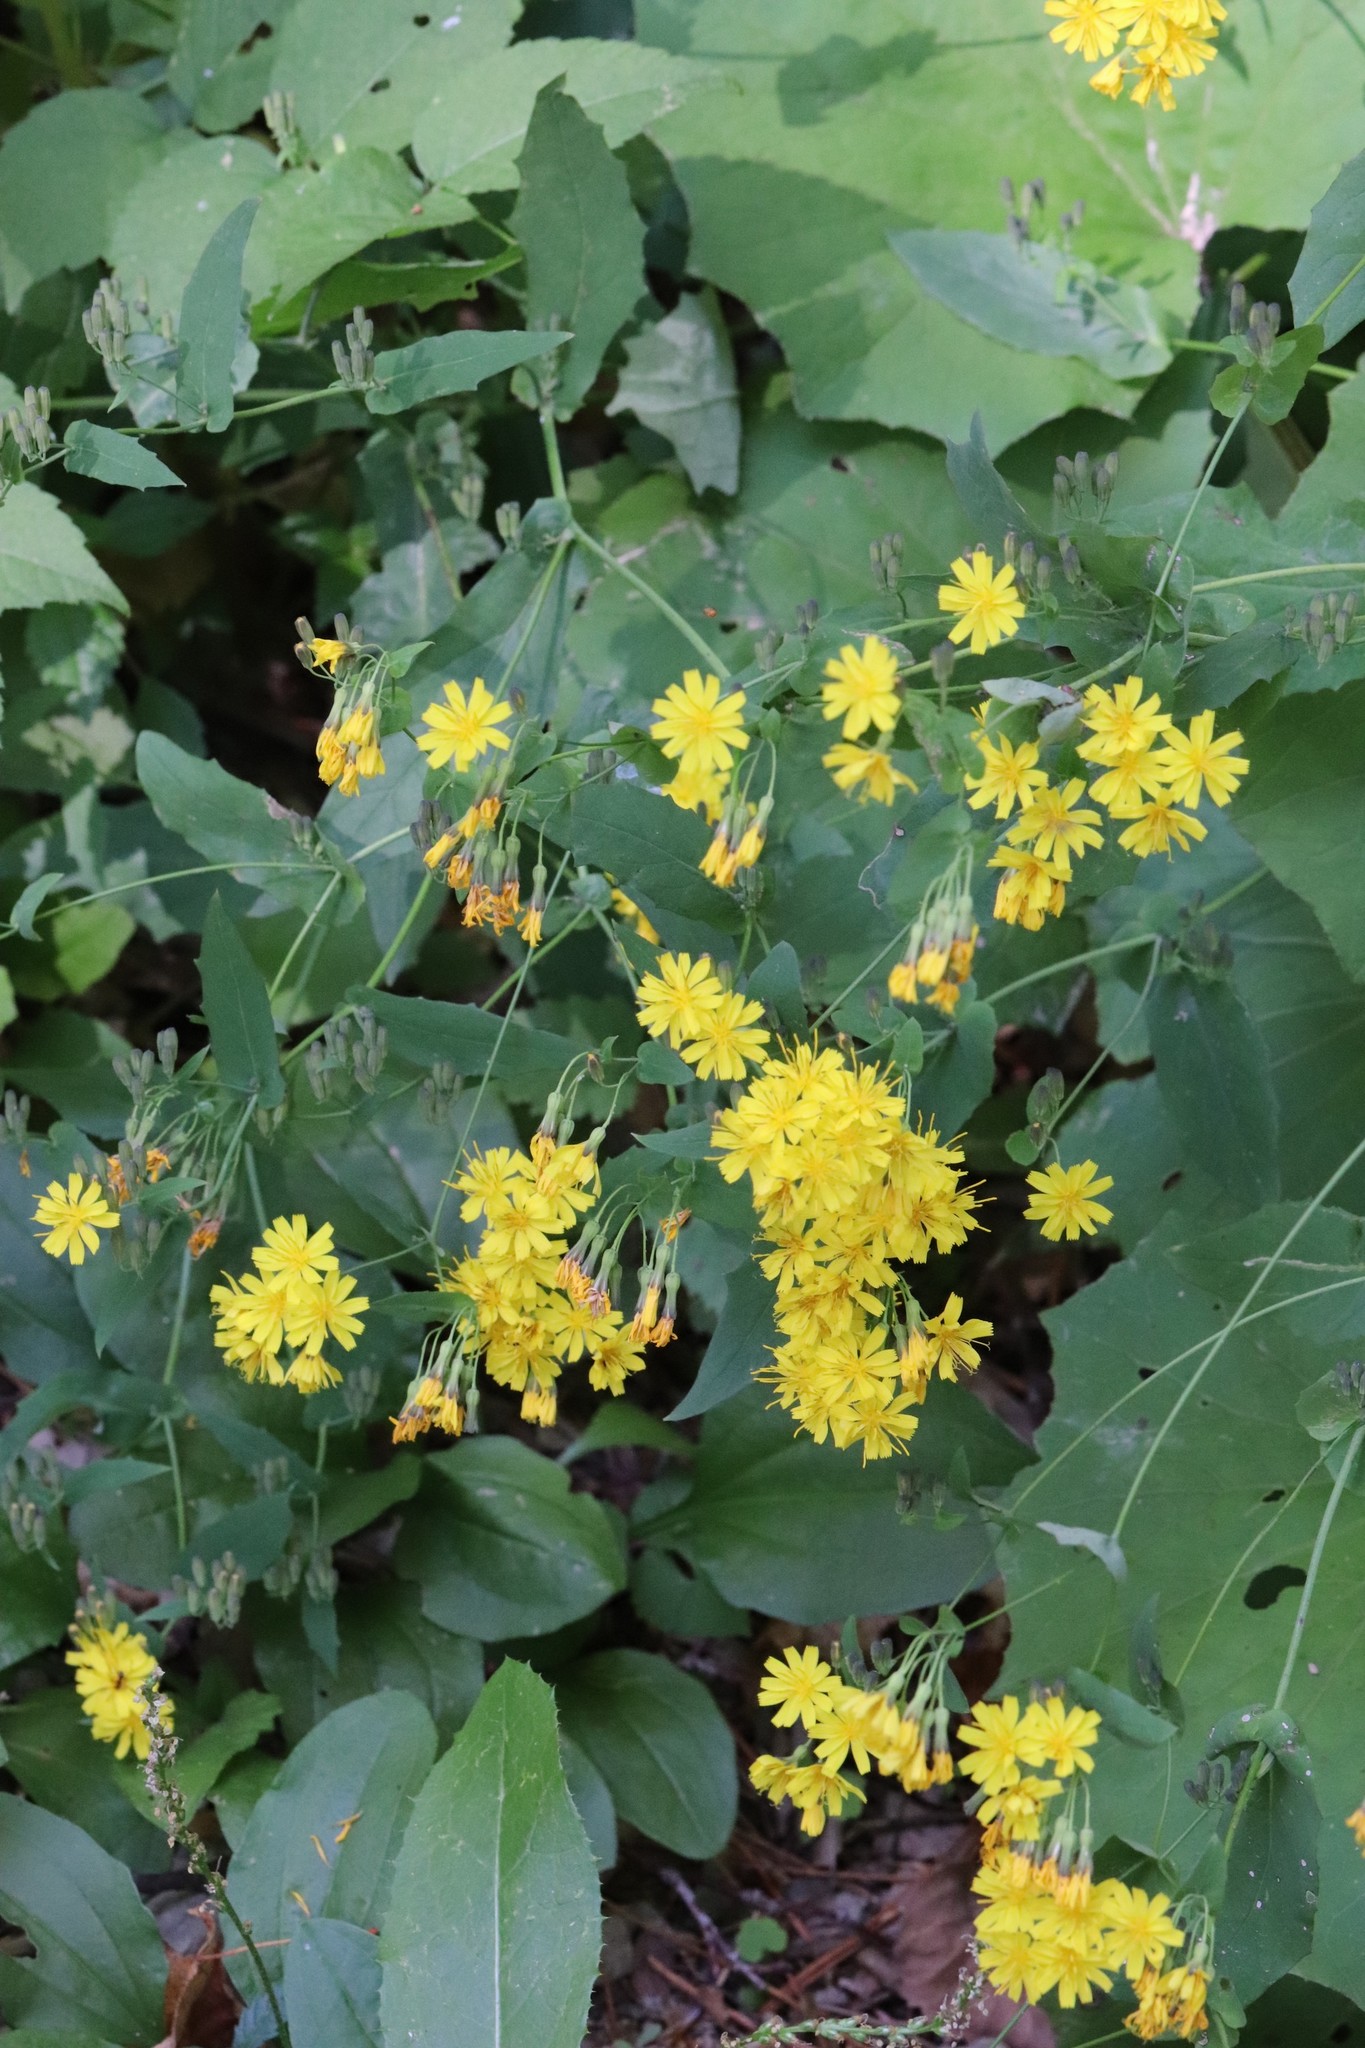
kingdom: Plantae
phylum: Tracheophyta
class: Magnoliopsida
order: Asterales
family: Asteraceae
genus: Crepidiastrum
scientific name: Crepidiastrum denticulatum
